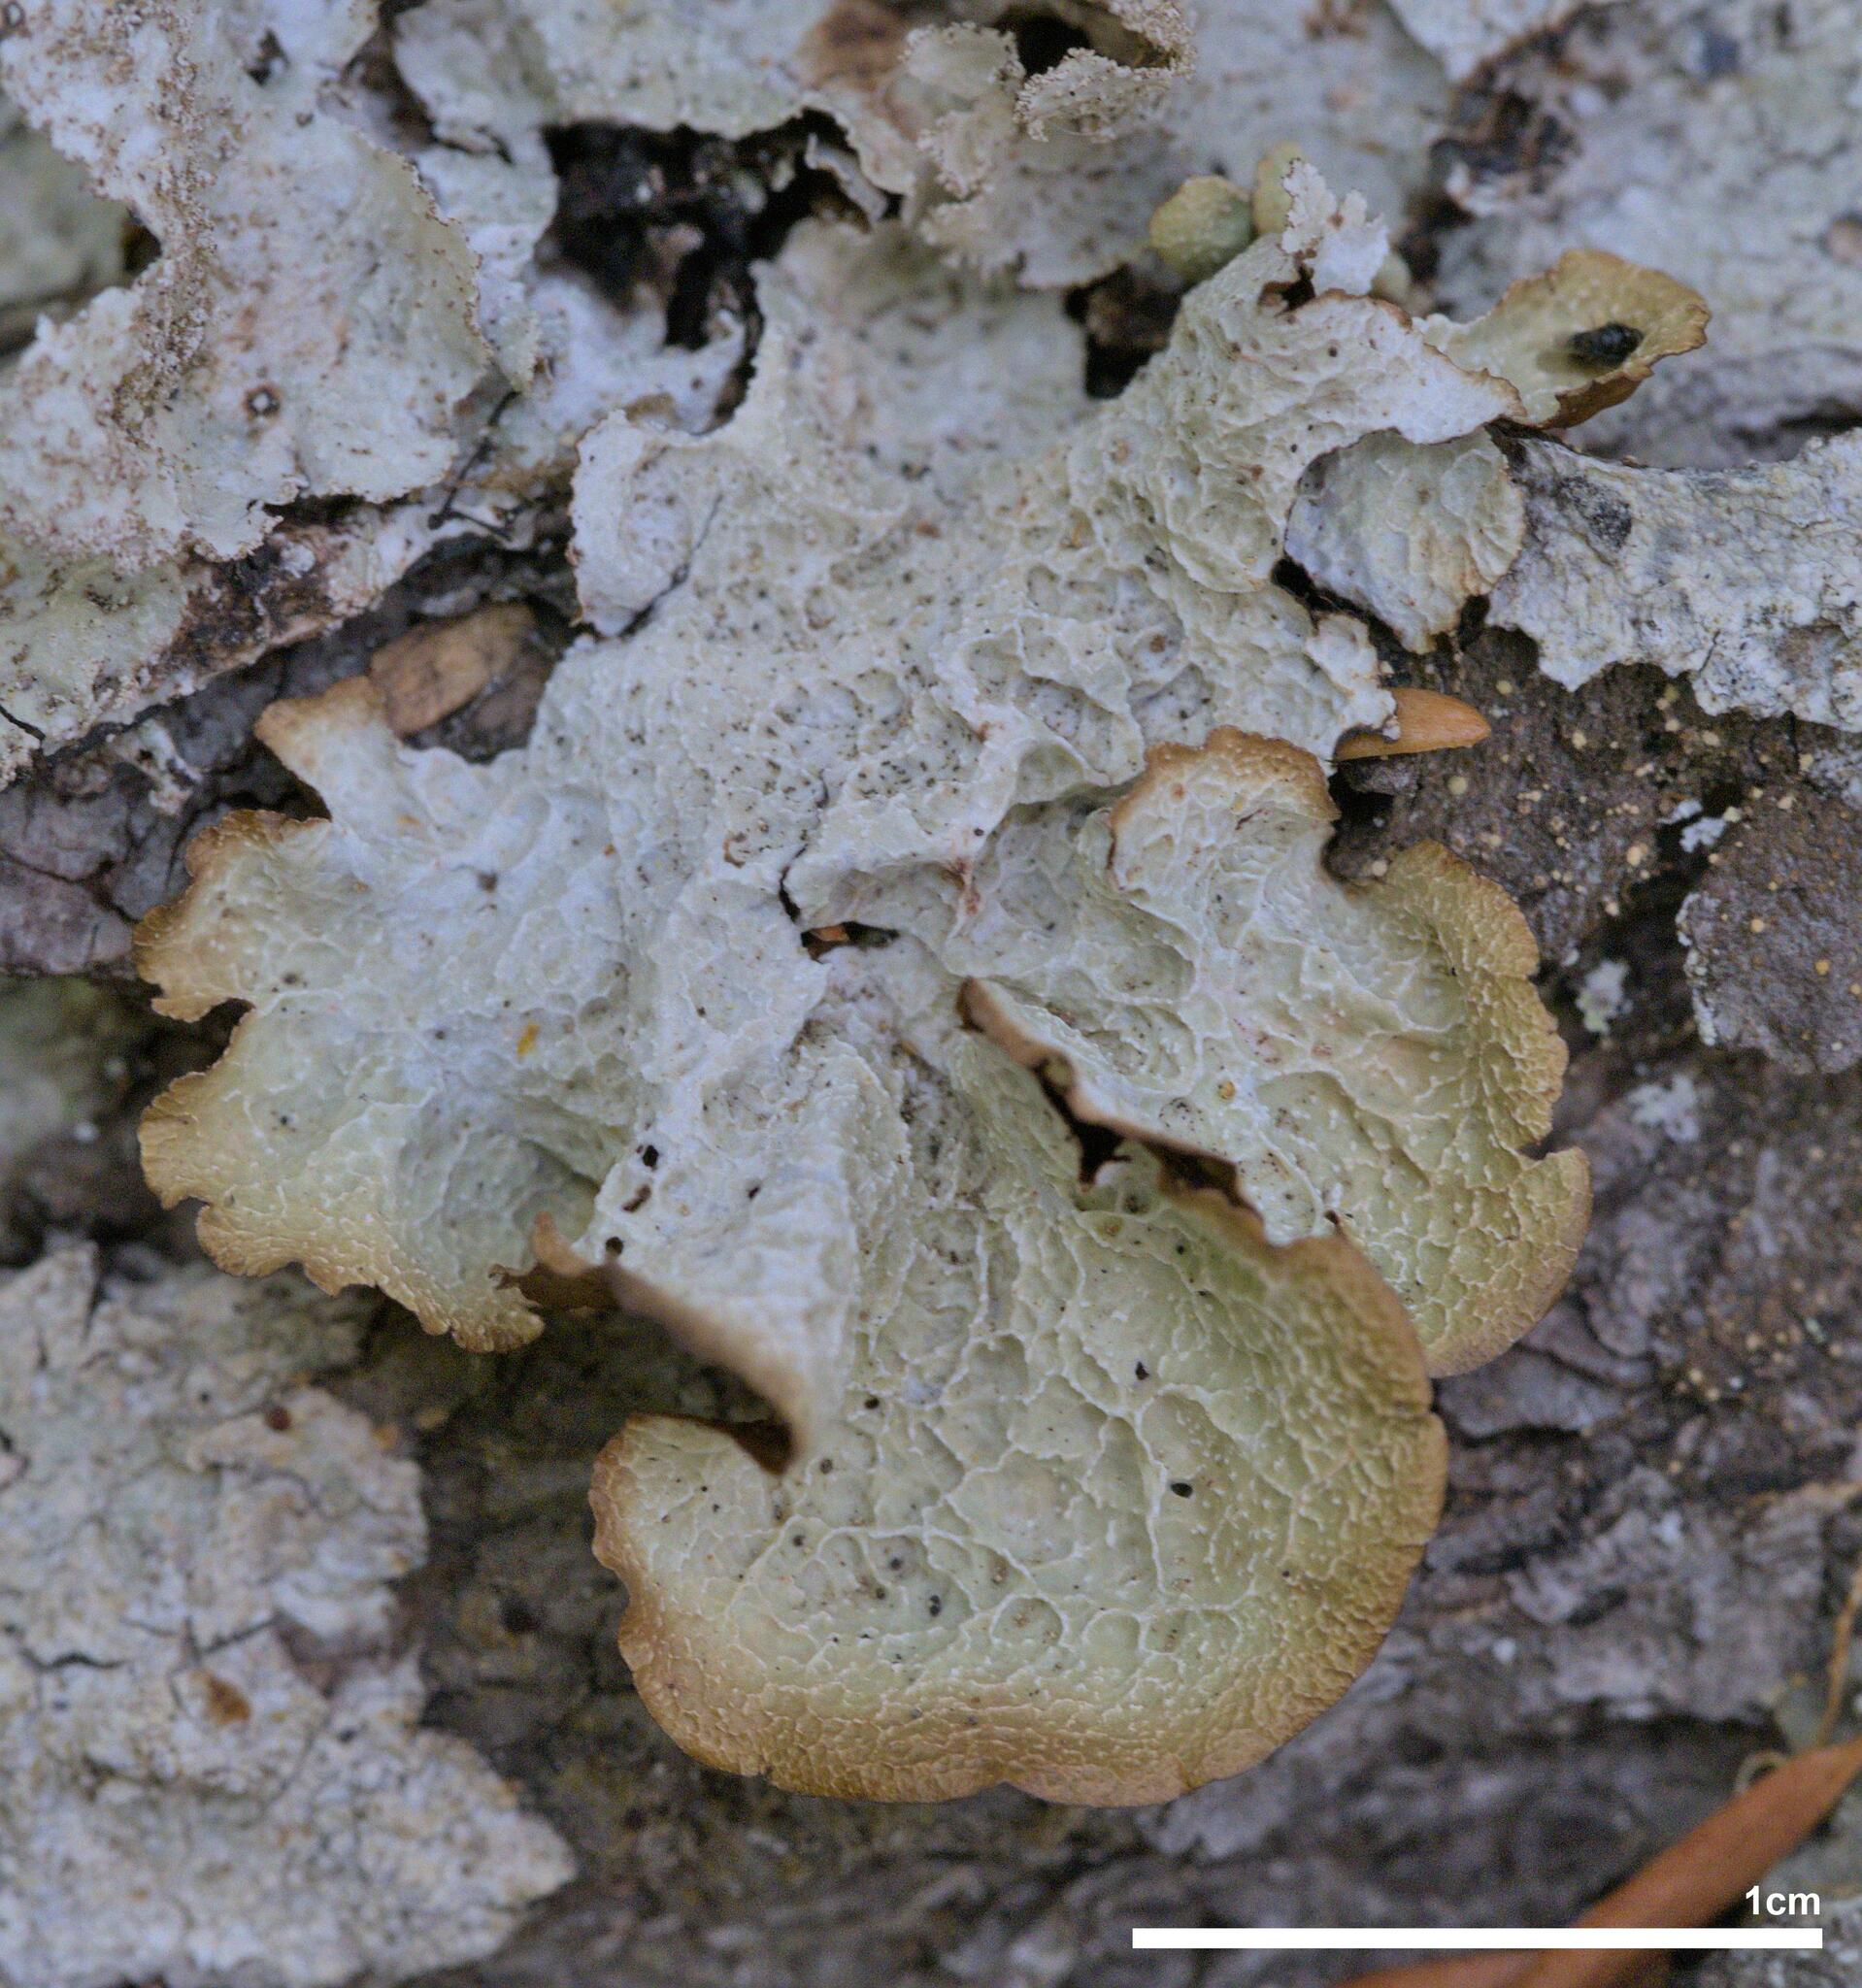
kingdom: Fungi
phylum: Ascomycota
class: Lecanoromycetes
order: Lecanorales
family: Parmeliaceae
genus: Platismatia
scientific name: Platismatia norvegica
